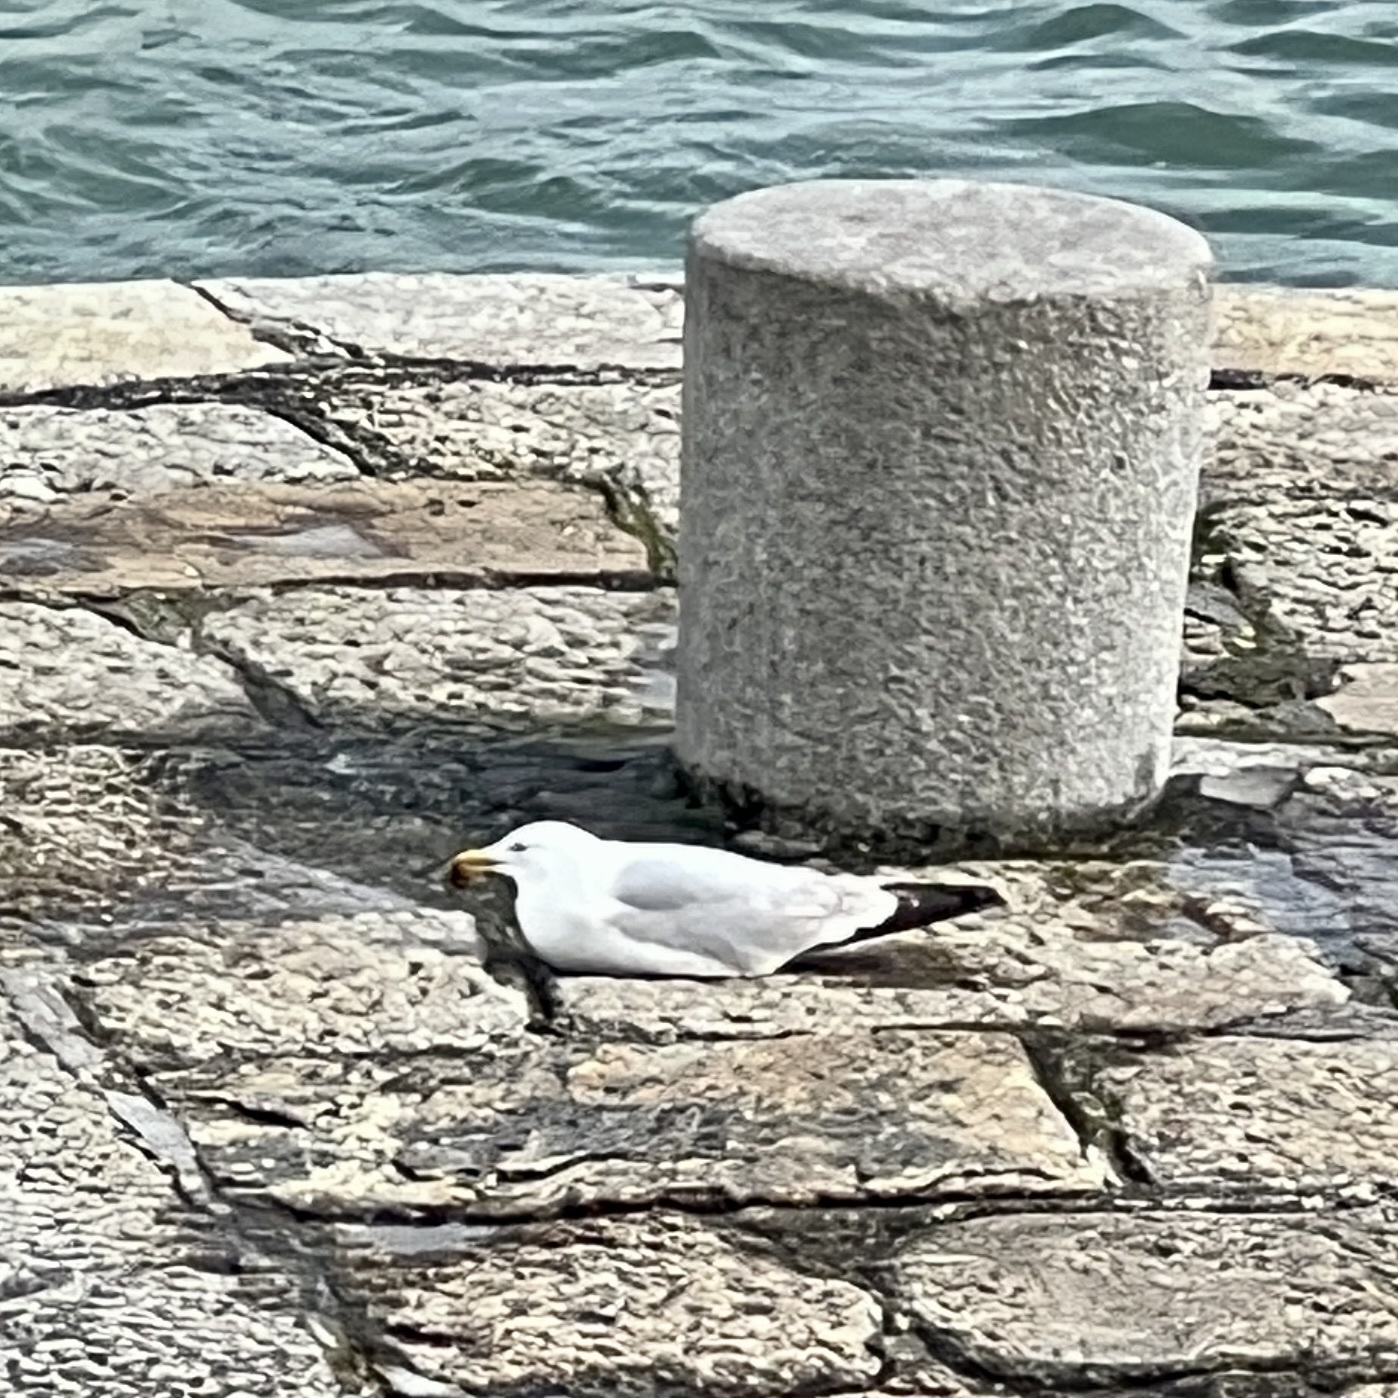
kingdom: Animalia
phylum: Chordata
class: Aves
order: Charadriiformes
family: Laridae
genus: Larus
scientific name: Larus argentatus
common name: Herring gull
